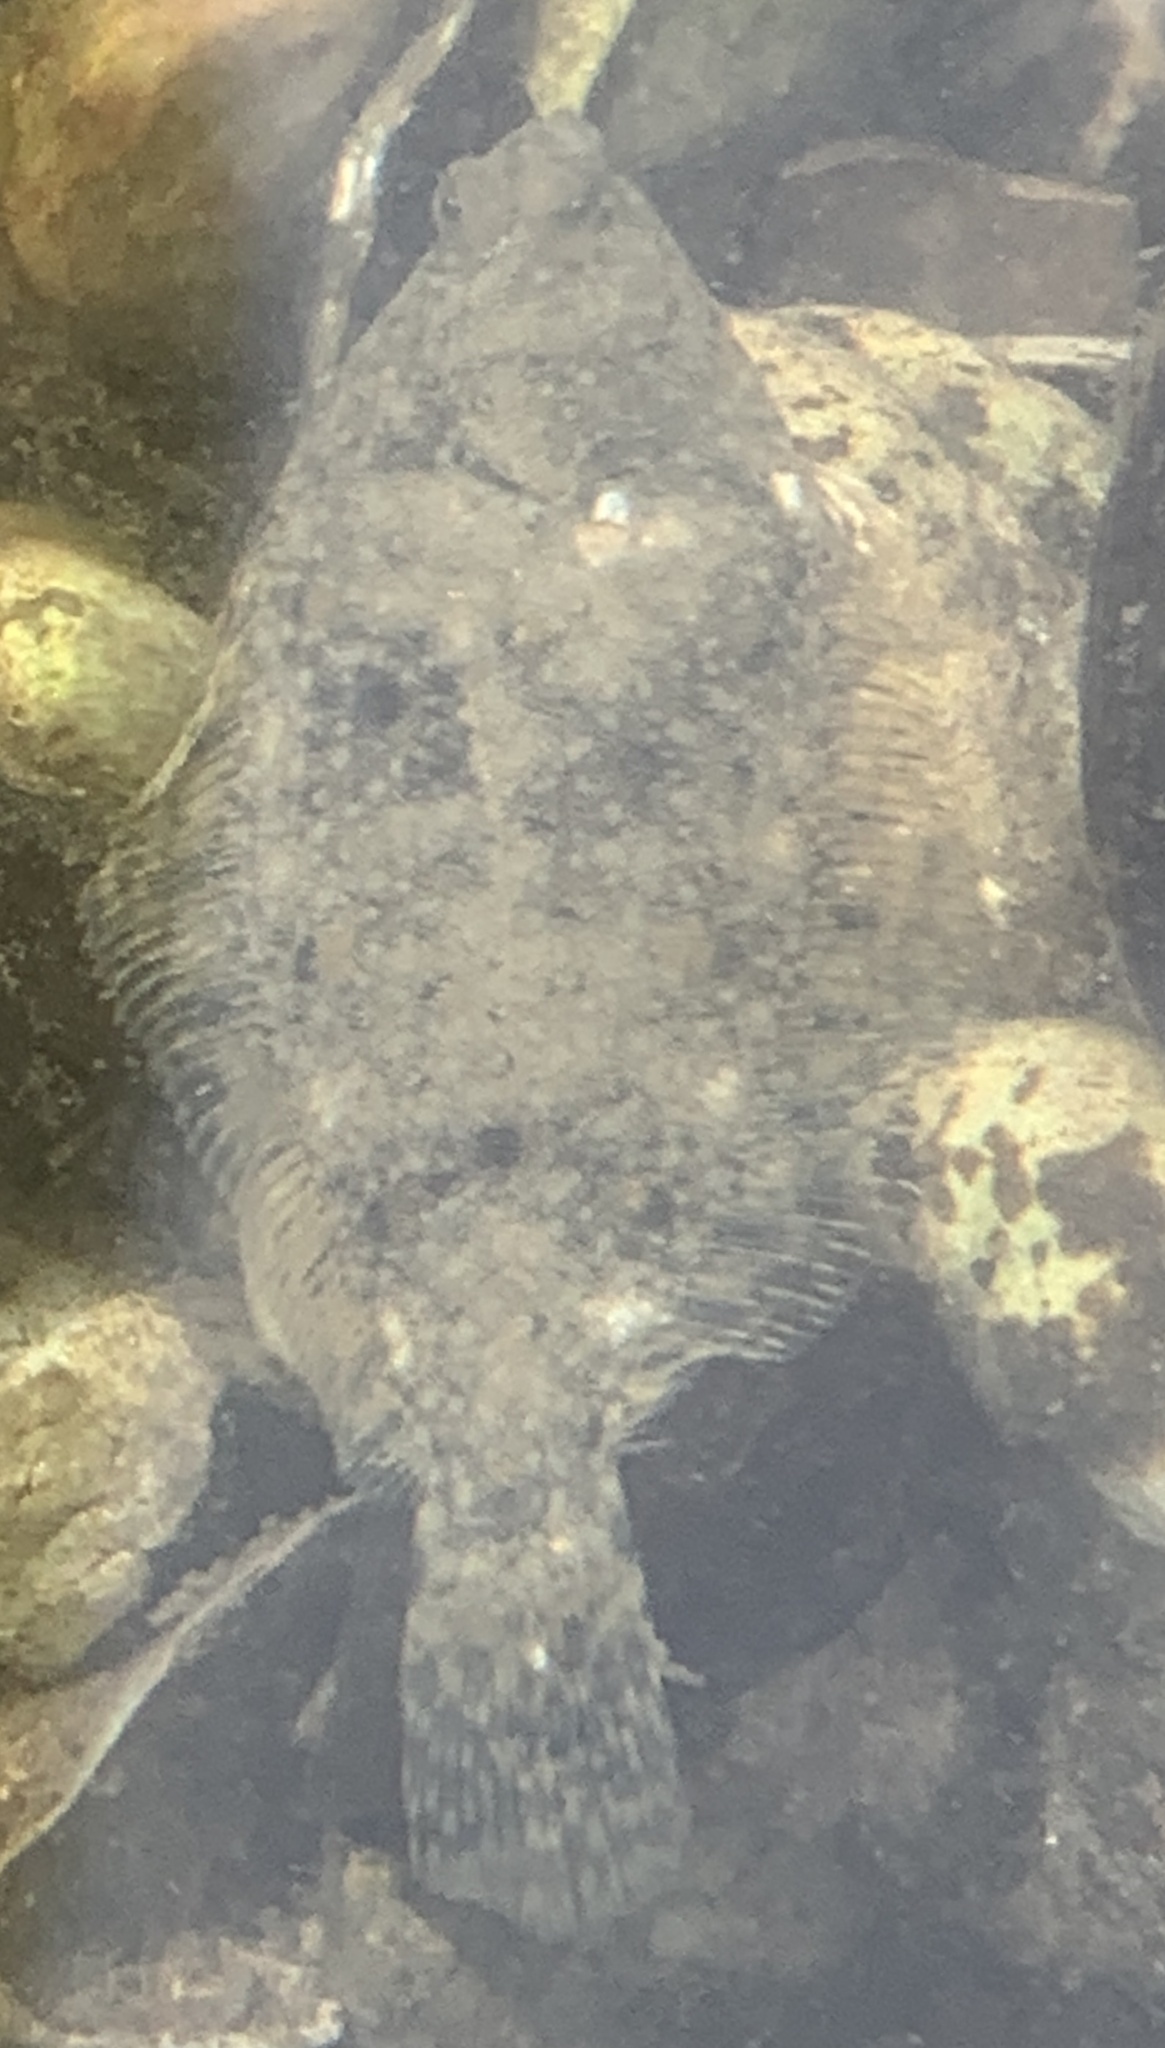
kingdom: Animalia
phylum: Chordata
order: Pleuronectiformes
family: Pleuronectidae
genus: Pseudopleuronectes
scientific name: Pseudopleuronectes americanus
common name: Black backs
